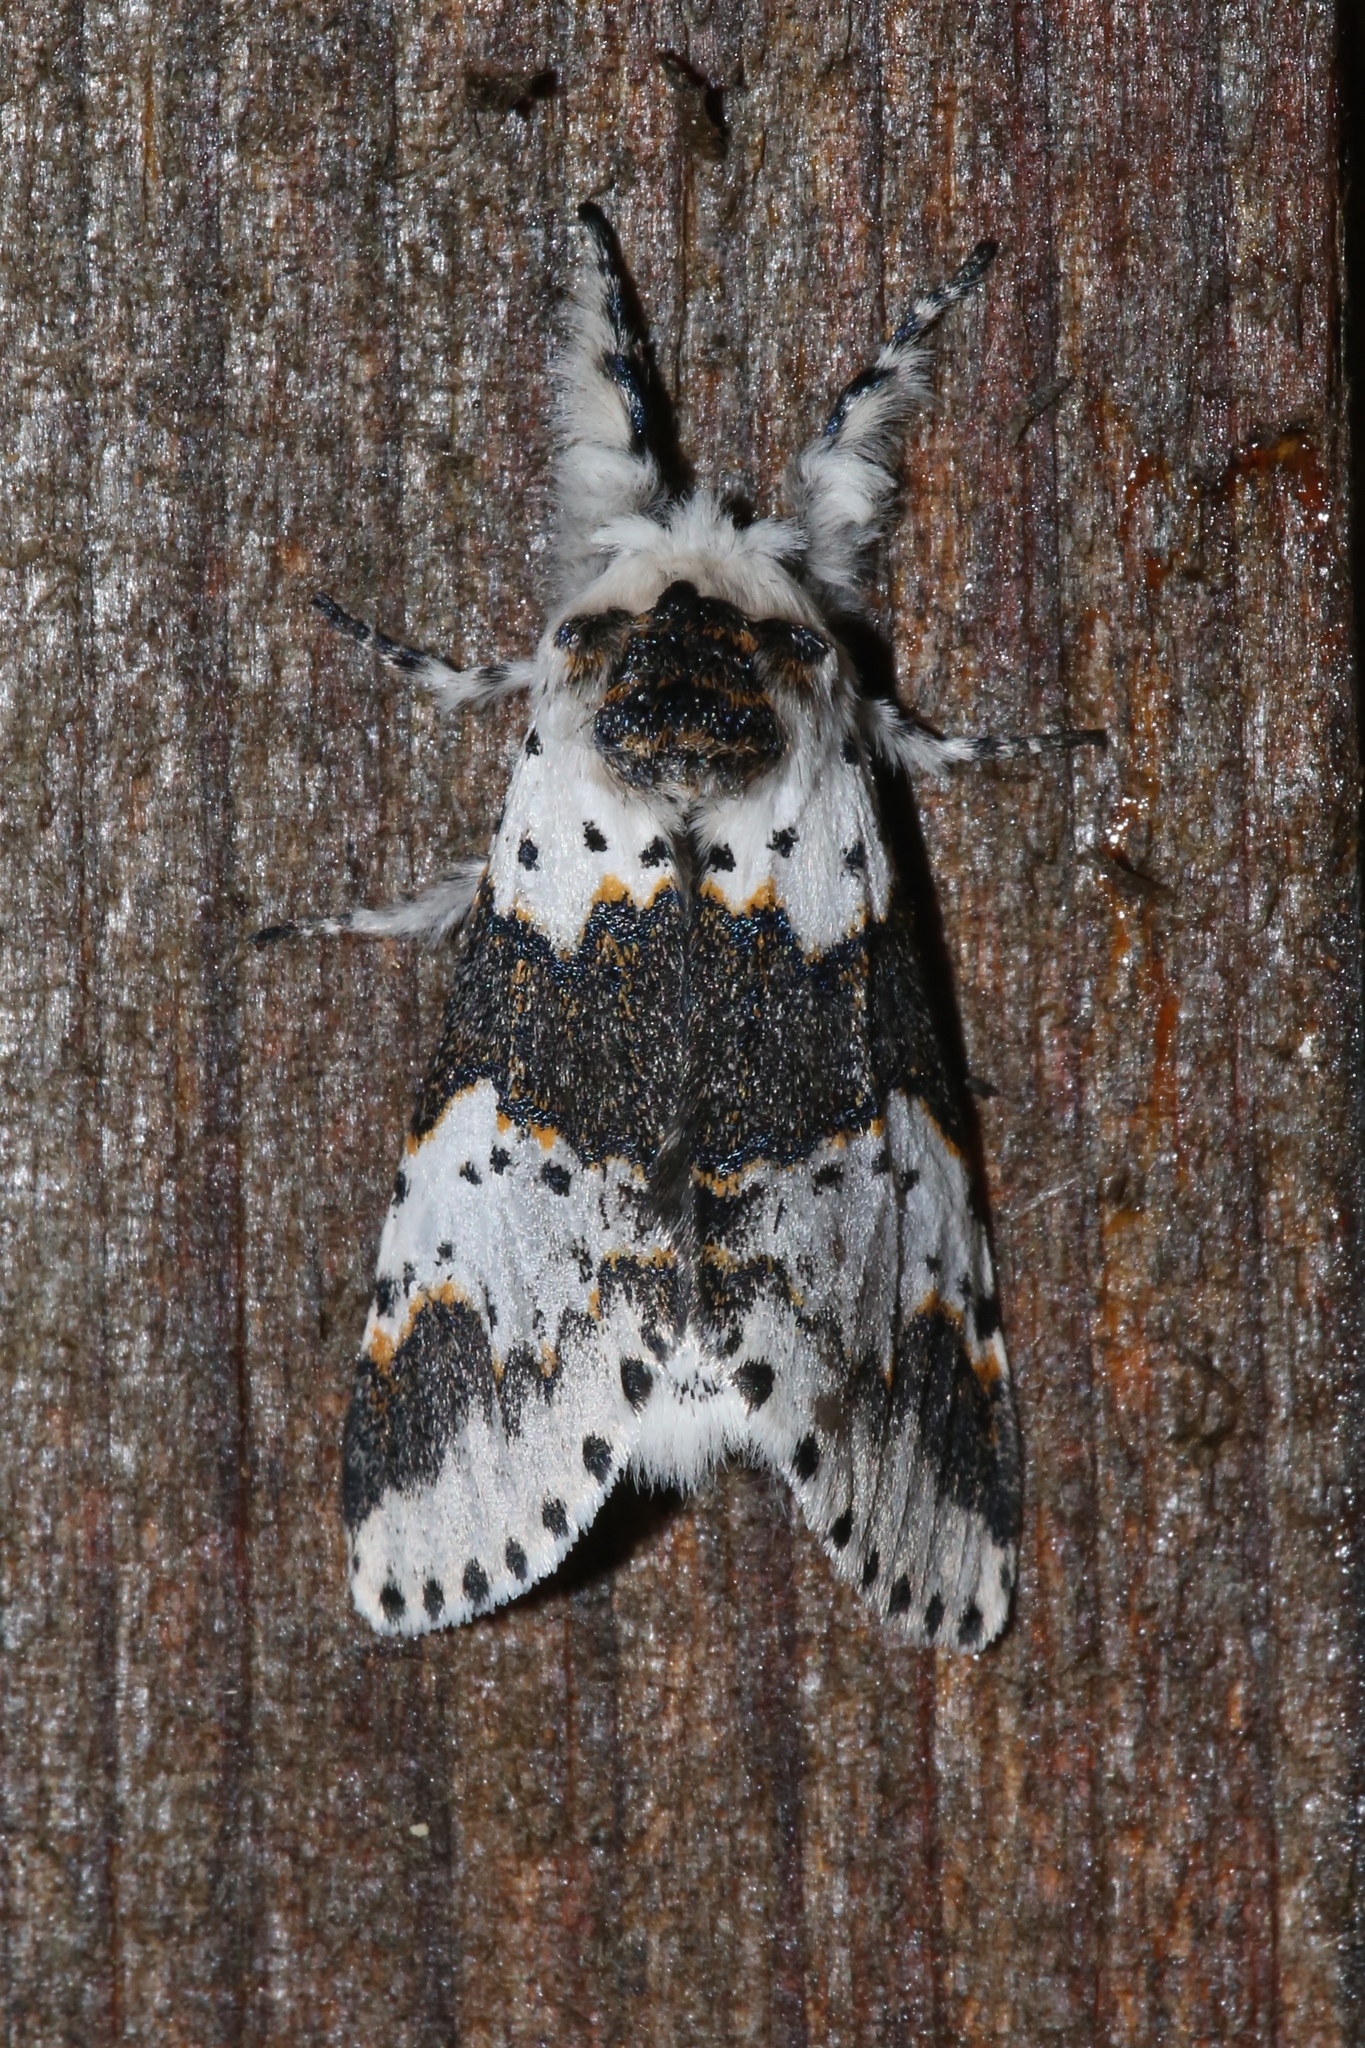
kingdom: Animalia
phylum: Arthropoda
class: Insecta
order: Lepidoptera
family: Notodontidae
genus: Furcula
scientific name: Furcula borealis
